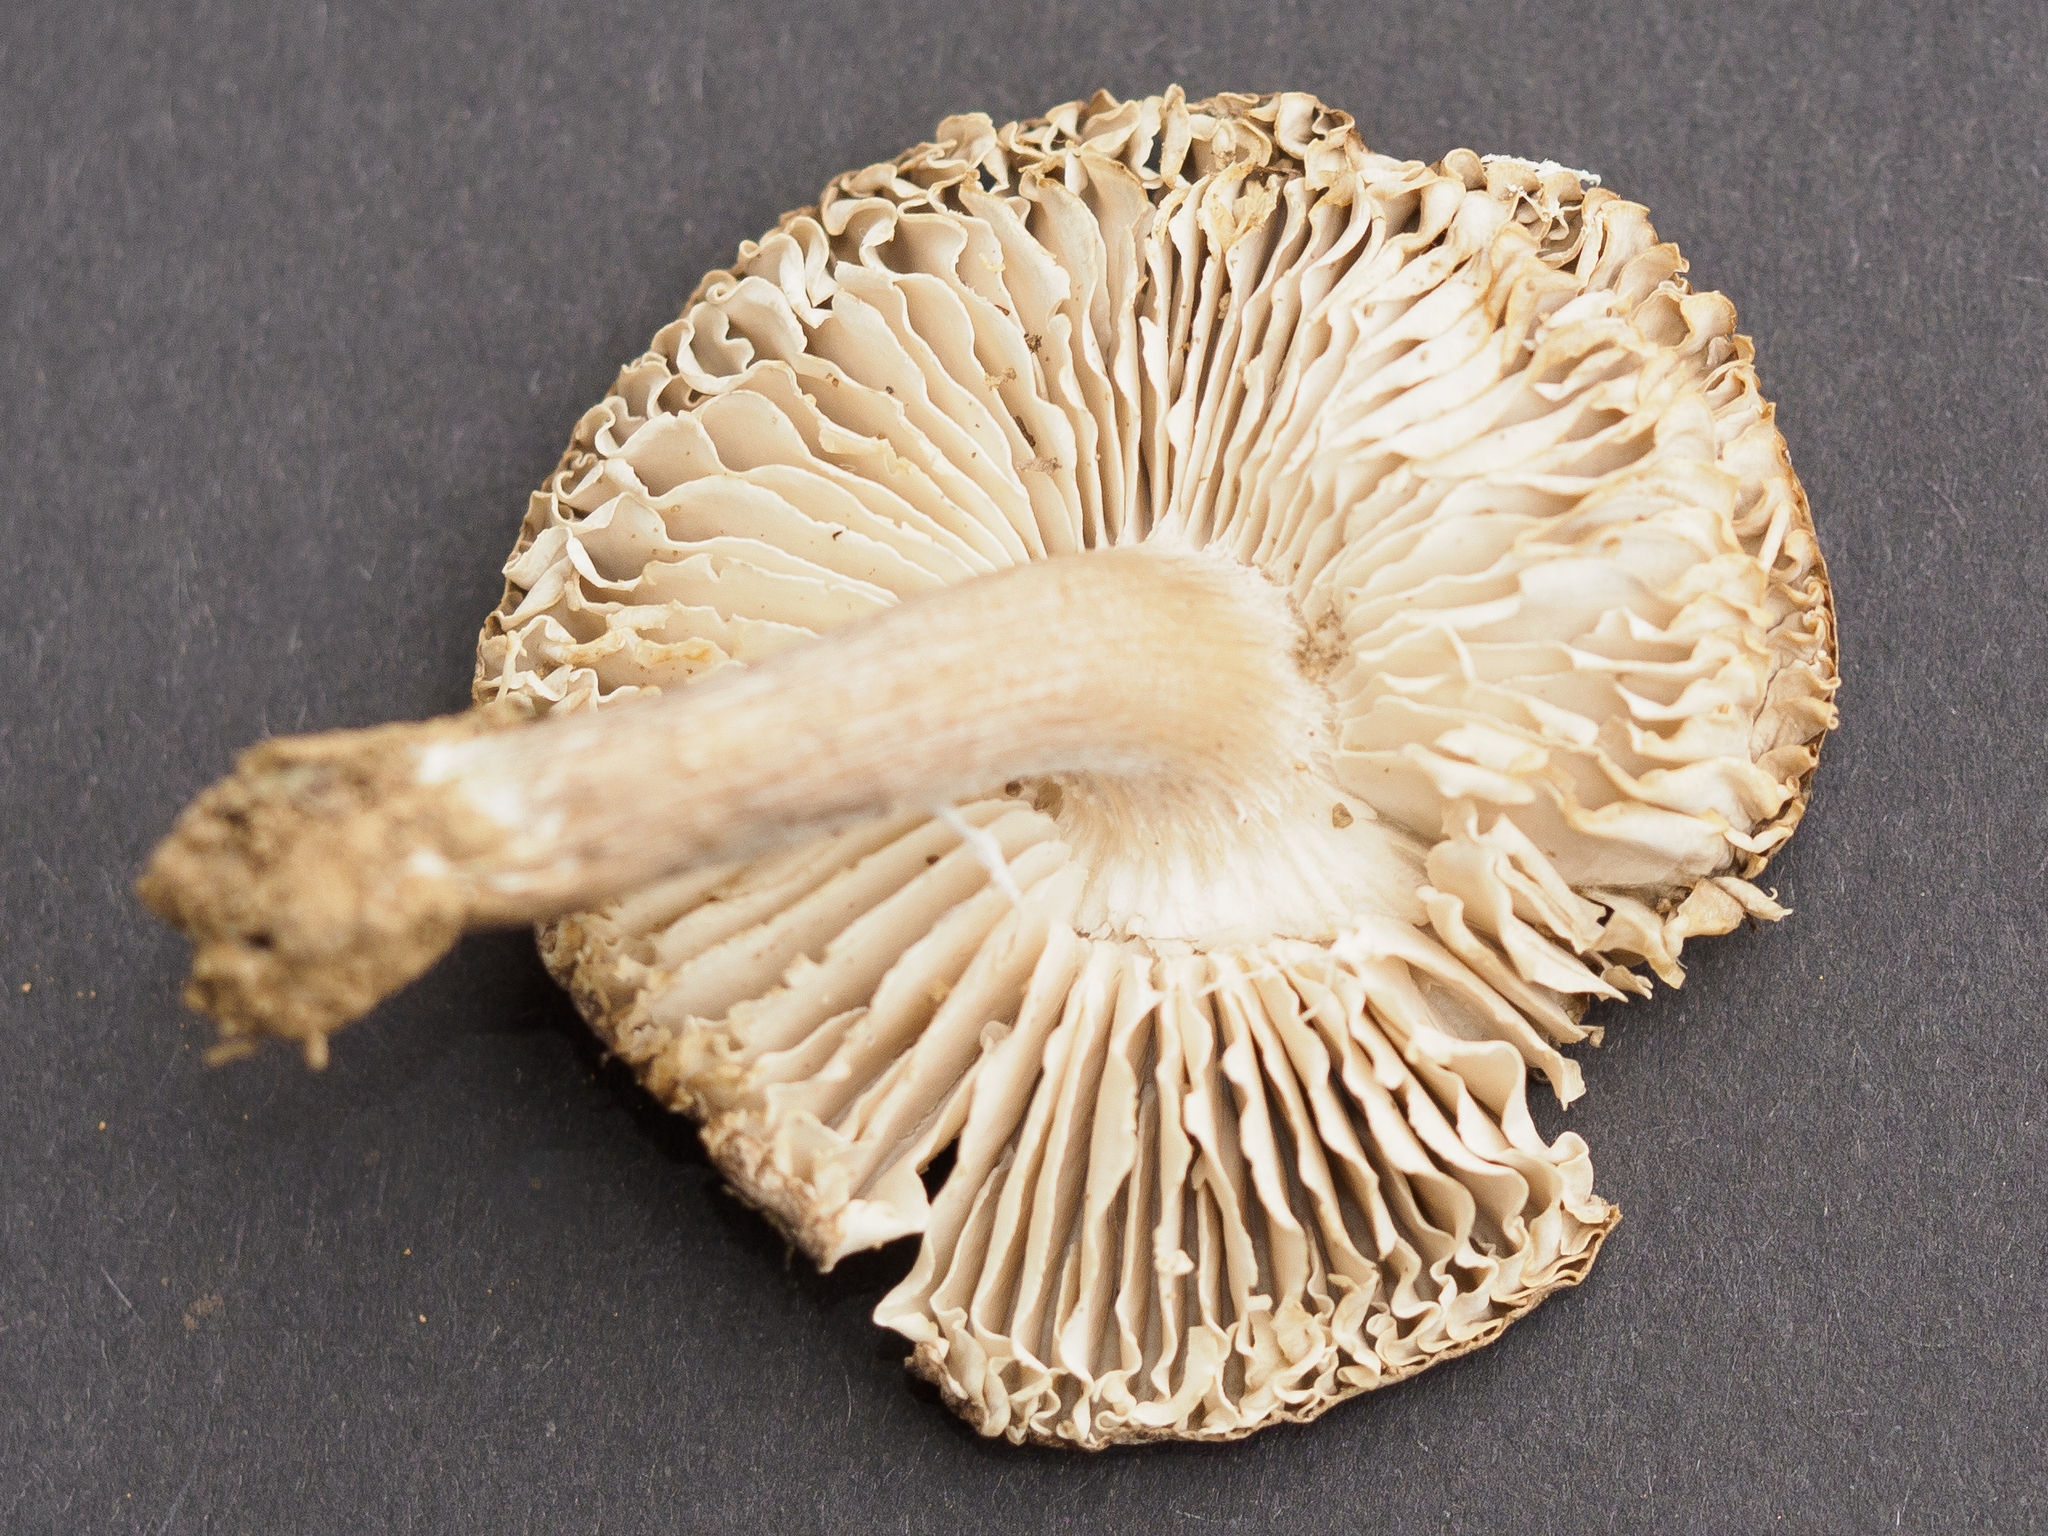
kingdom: Fungi
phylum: Basidiomycota
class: Agaricomycetes
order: Agaricales
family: Tricholomataceae
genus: Tricholoma
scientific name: Tricholoma virgatum
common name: Ashen knight
